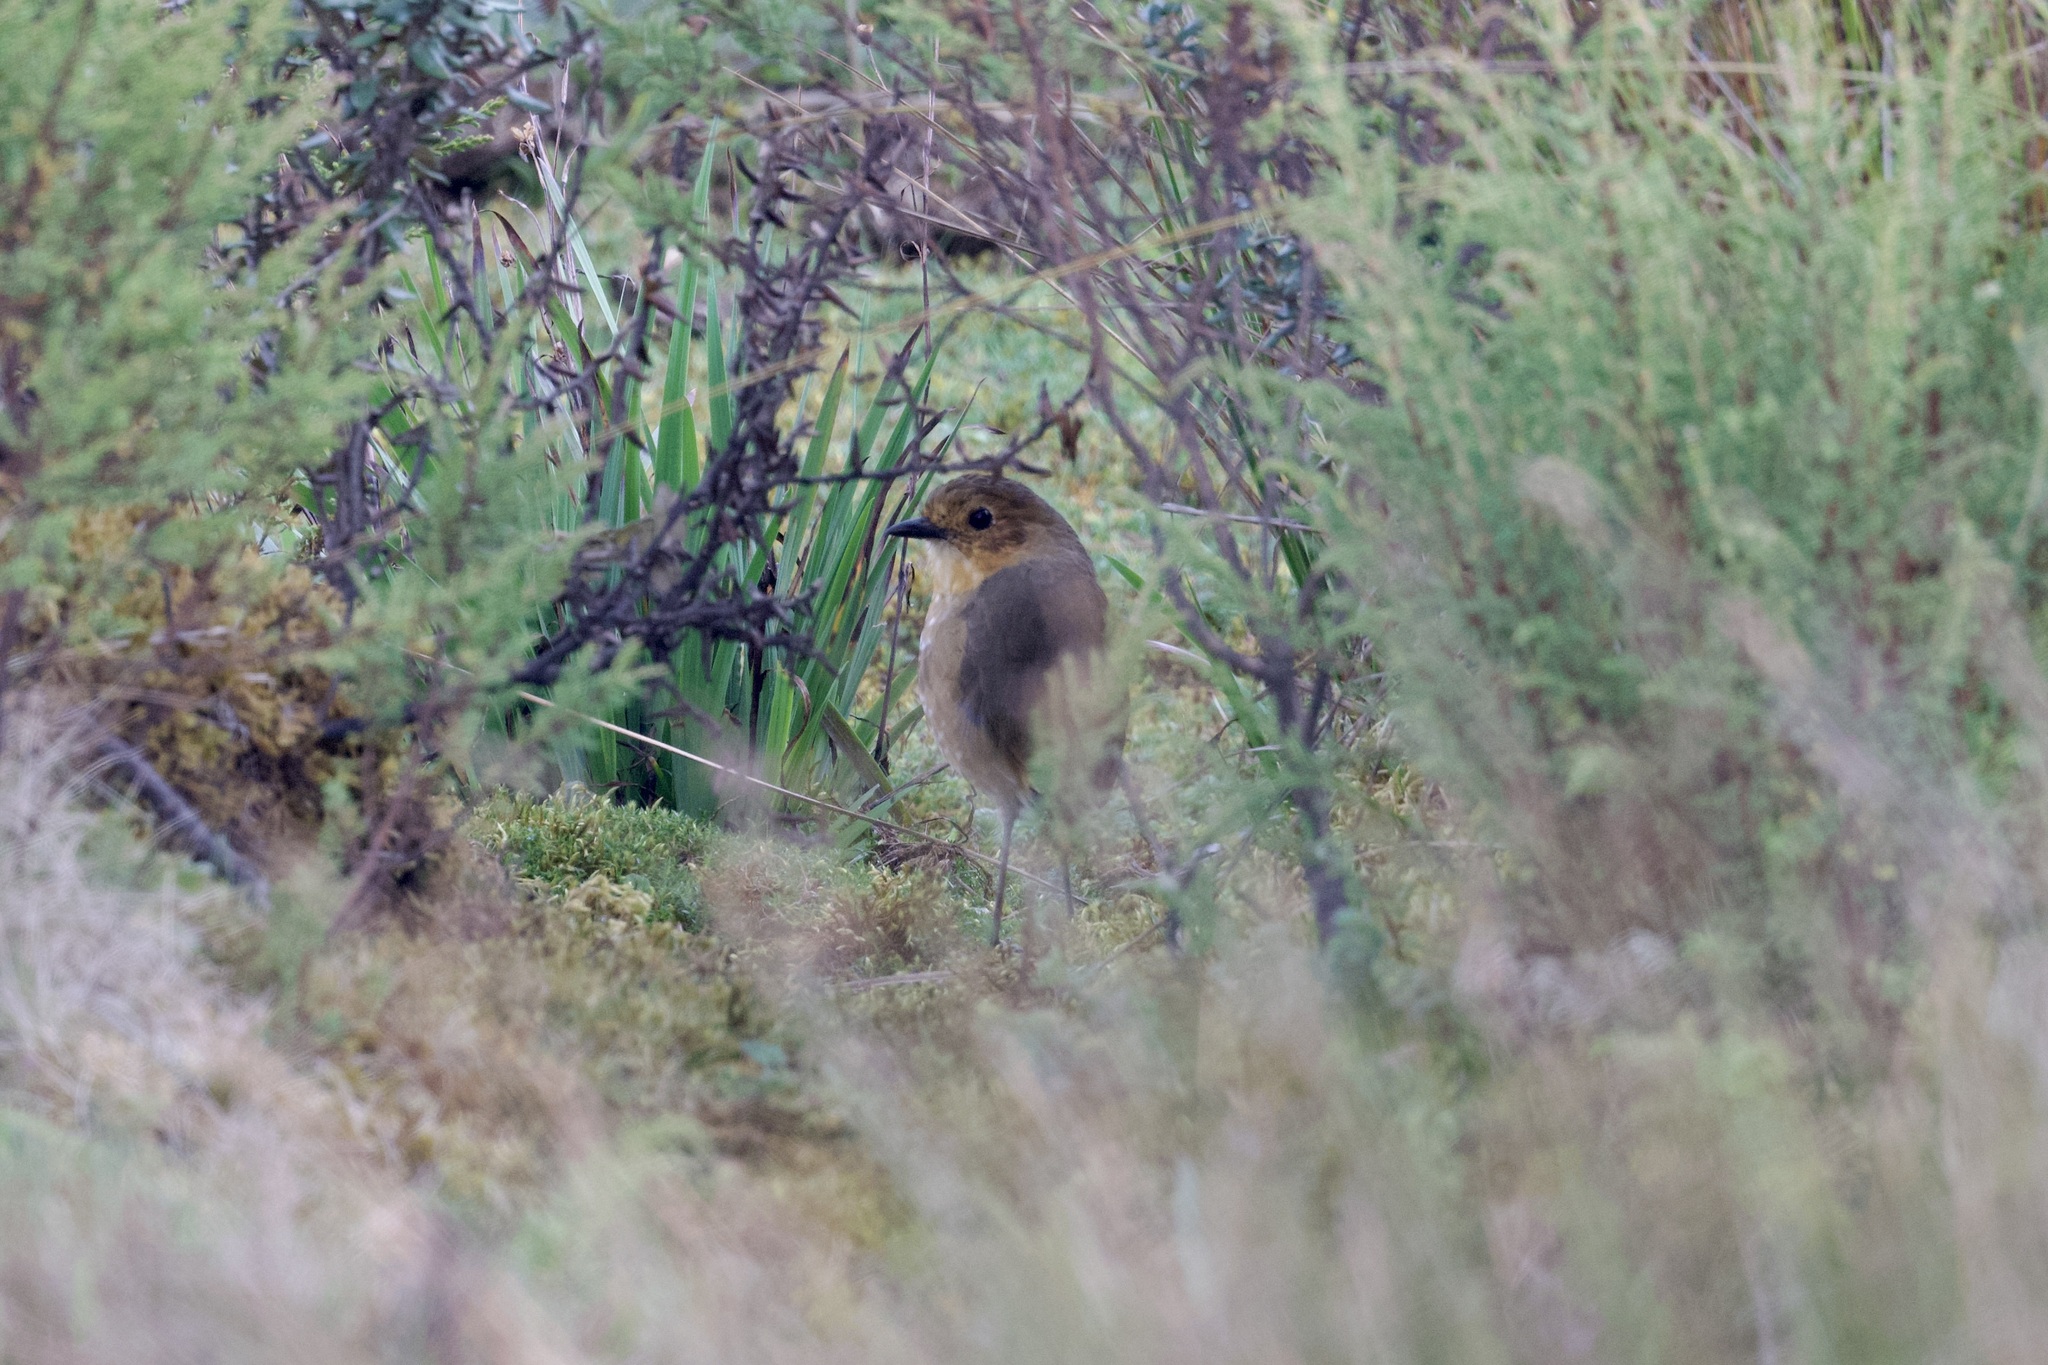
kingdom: Animalia
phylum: Chordata
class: Aves
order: Passeriformes
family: Grallariidae
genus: Grallaria
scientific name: Grallaria alticola
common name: Boyaca antpitta
